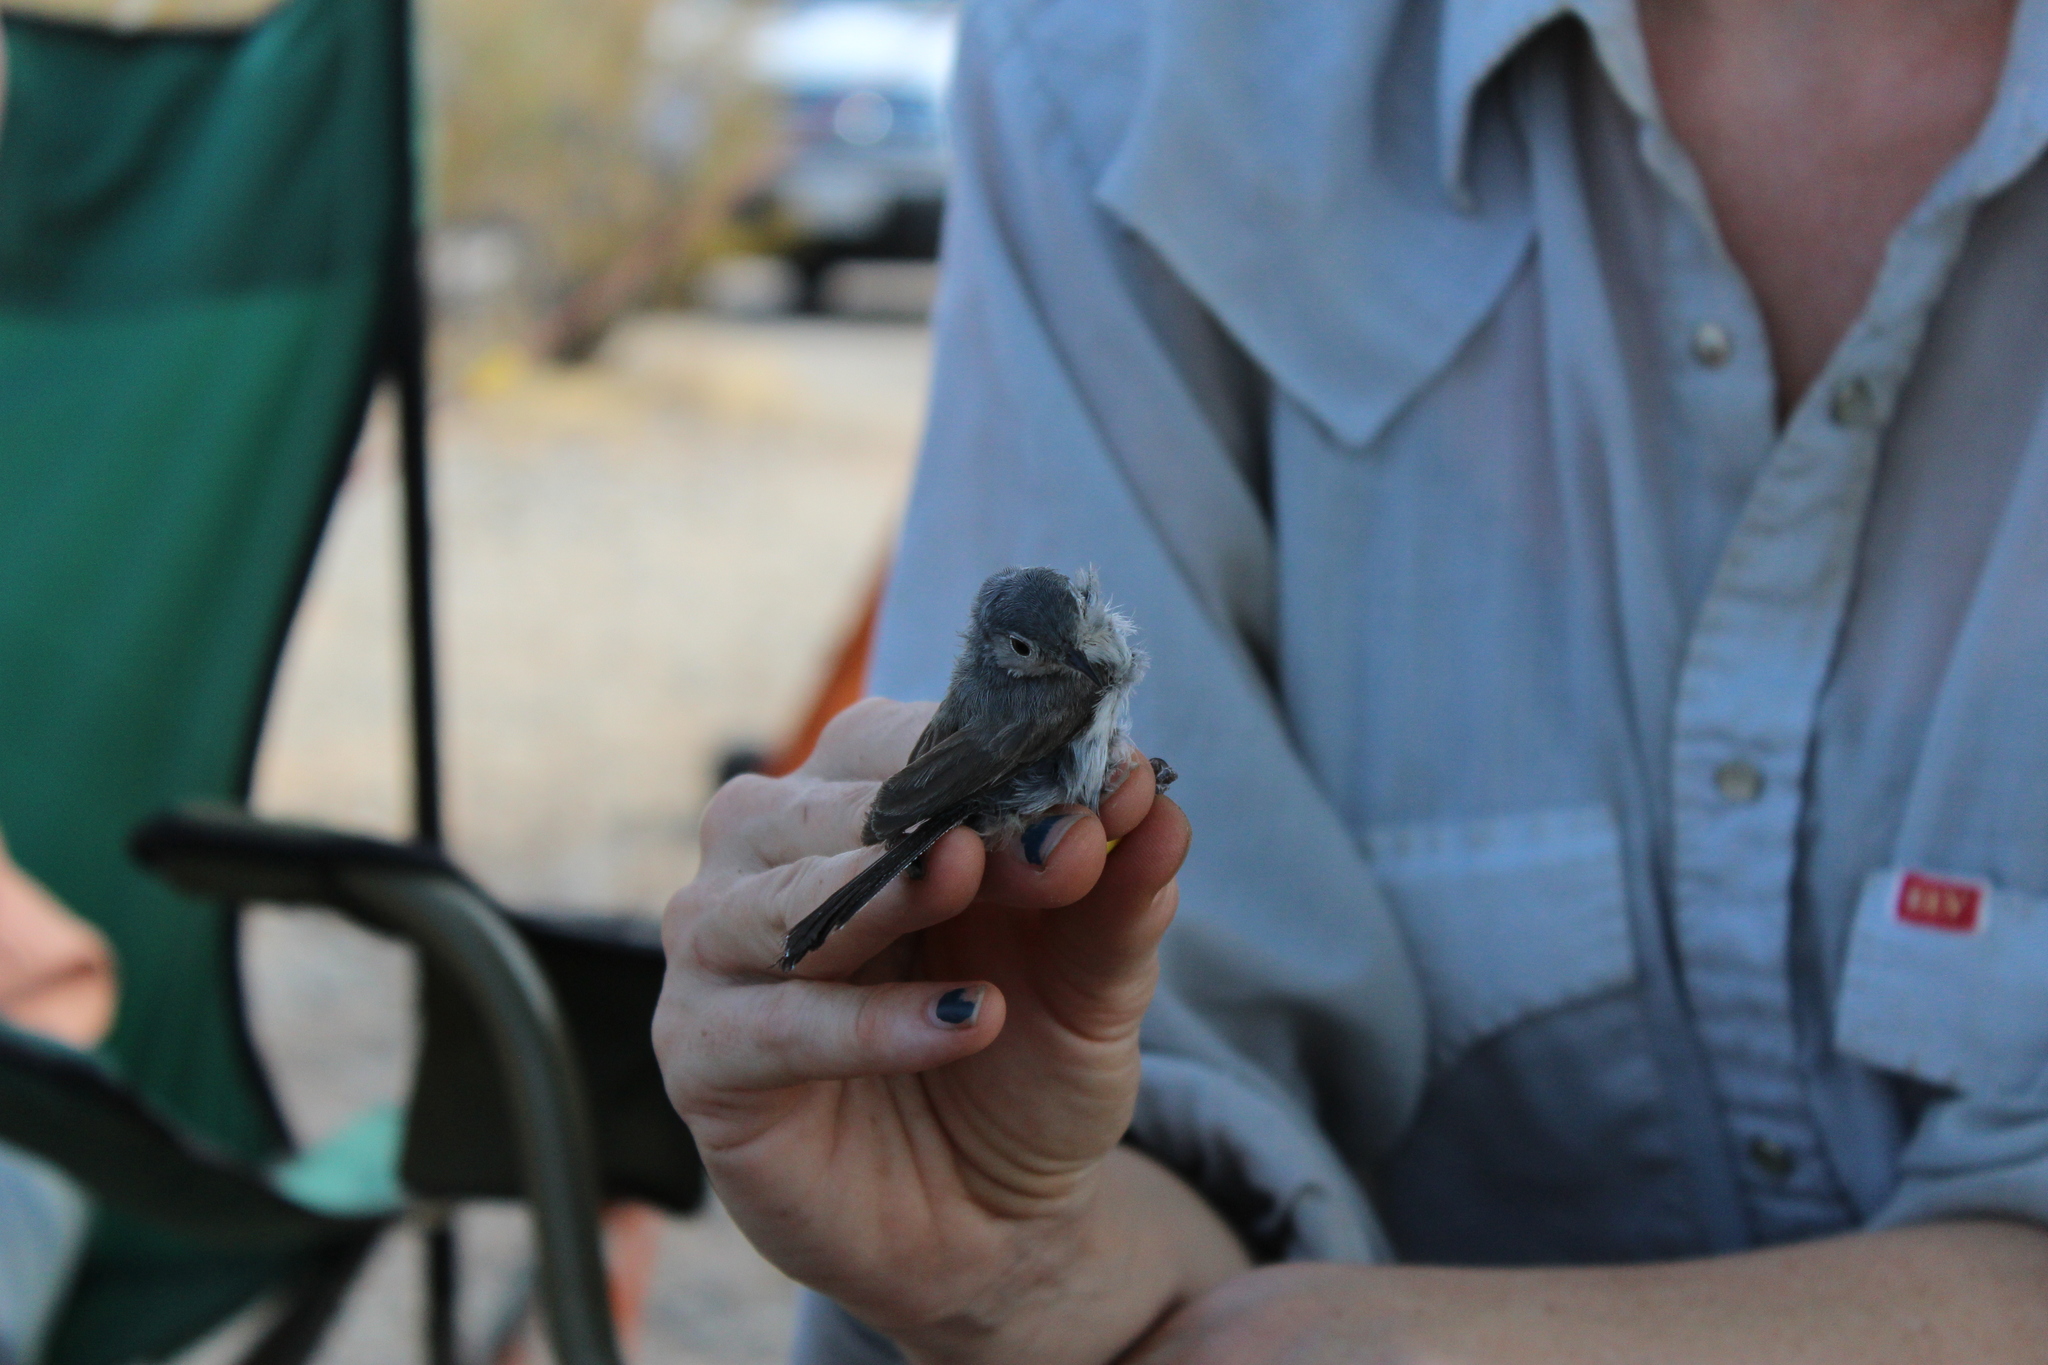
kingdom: Animalia
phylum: Chordata
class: Aves
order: Passeriformes
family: Polioptilidae
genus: Polioptila
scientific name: Polioptila melanura
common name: Black-tailed gnatcatcher
